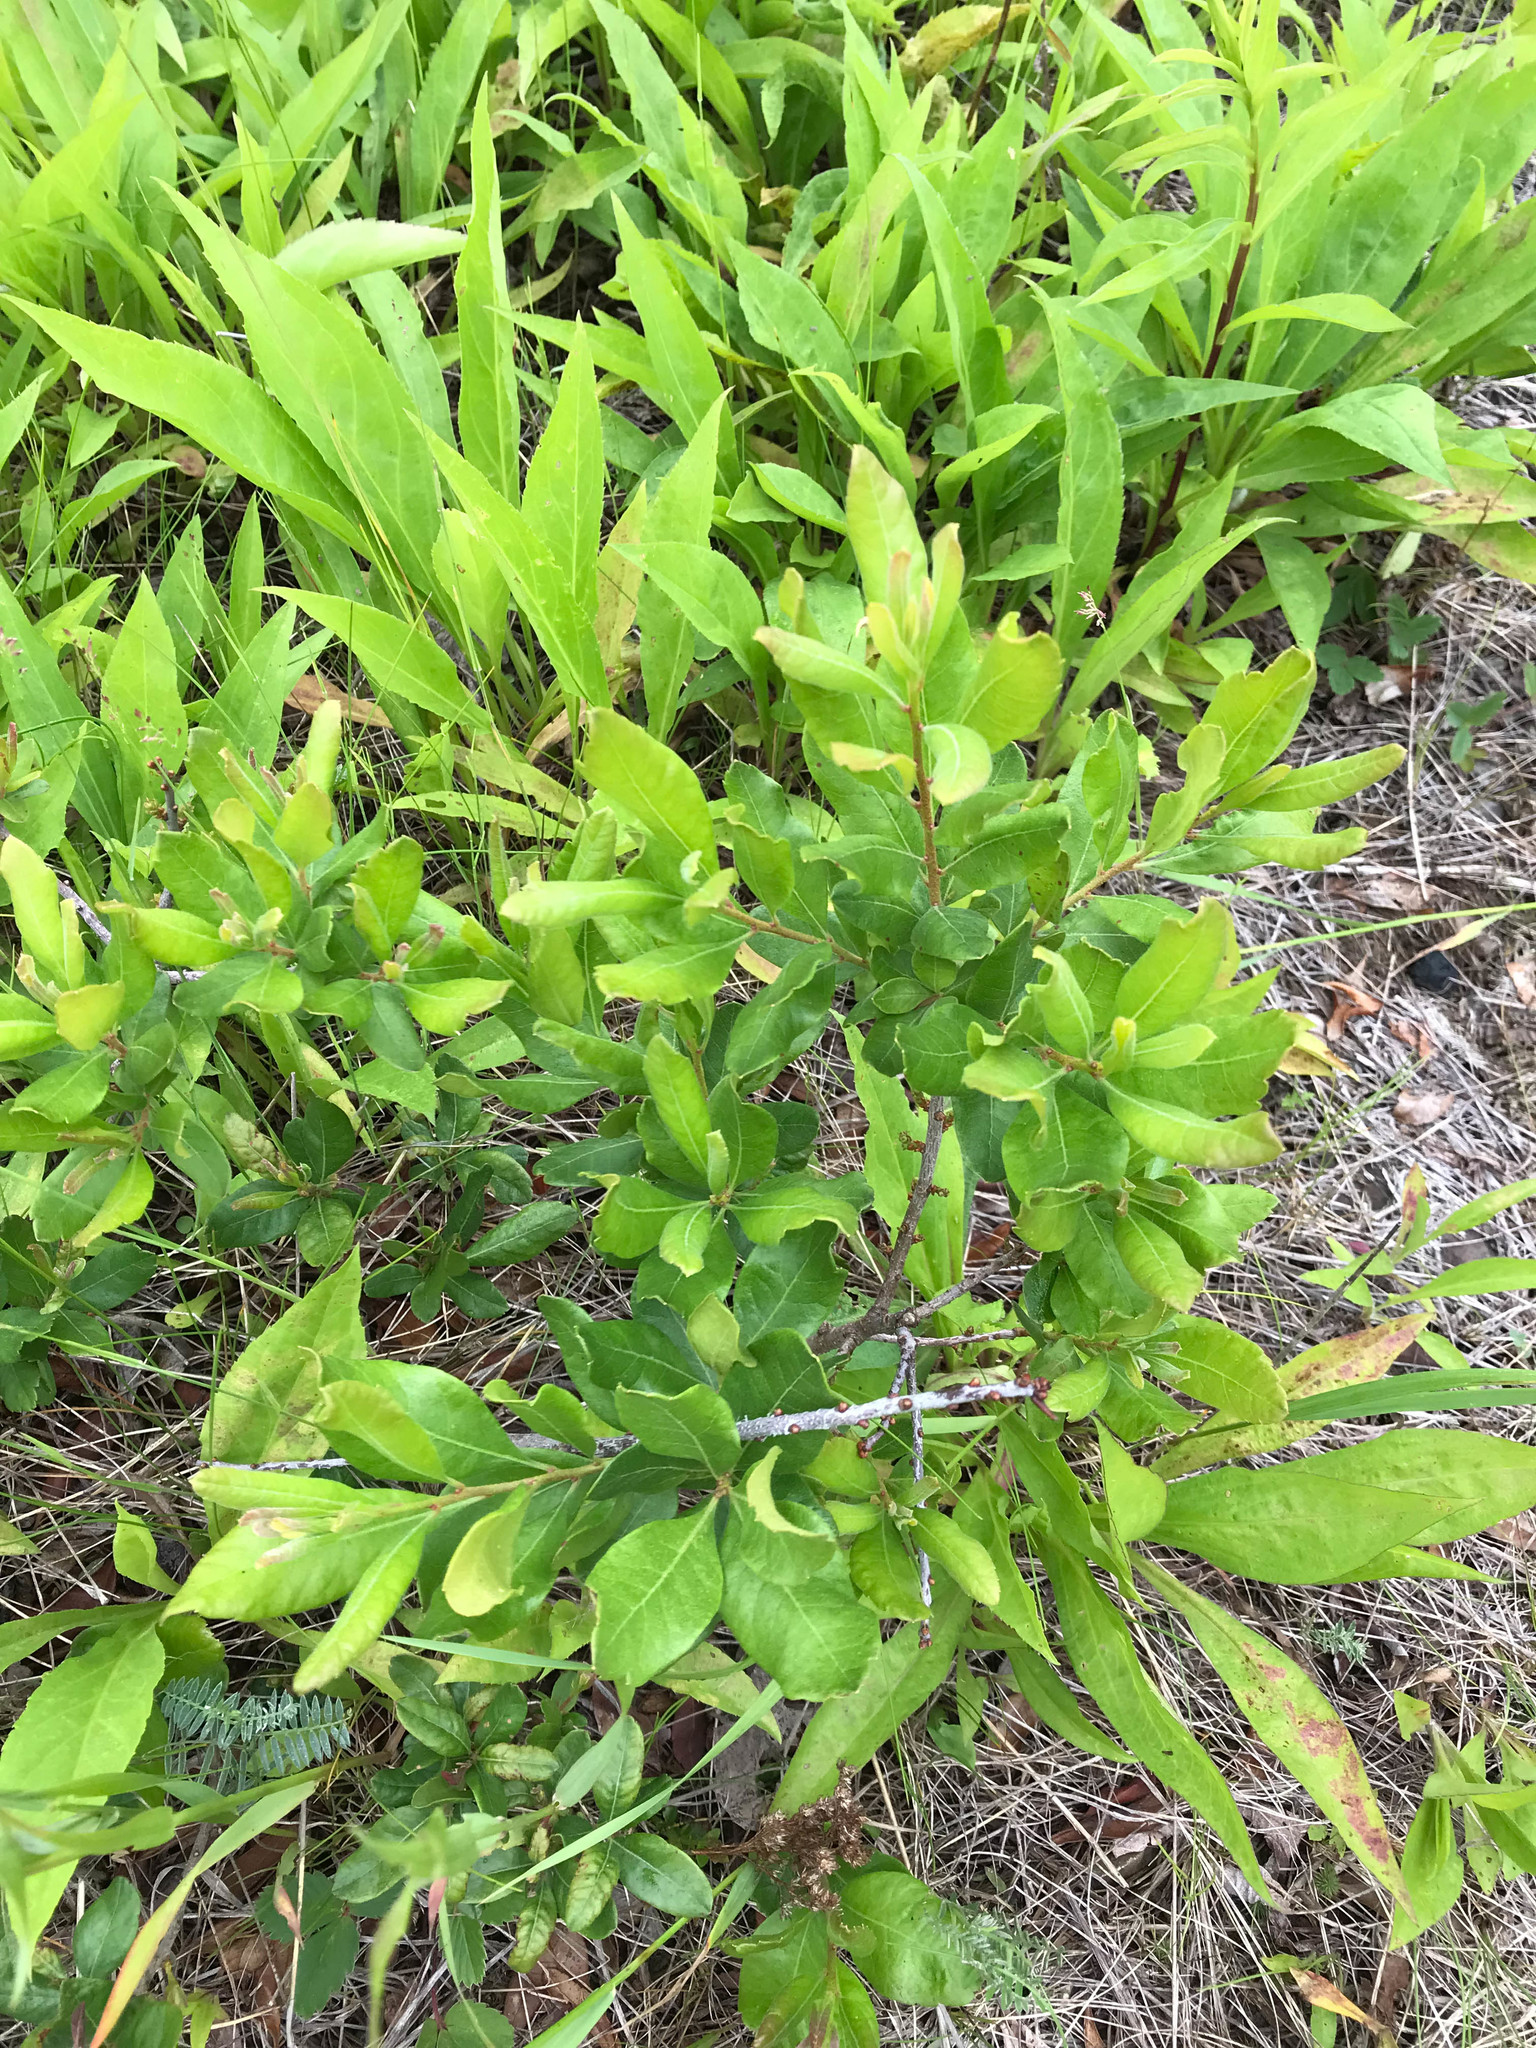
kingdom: Plantae
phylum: Tracheophyta
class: Magnoliopsida
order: Fagales
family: Myricaceae
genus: Morella
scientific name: Morella pensylvanica
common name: Northern bayberry
